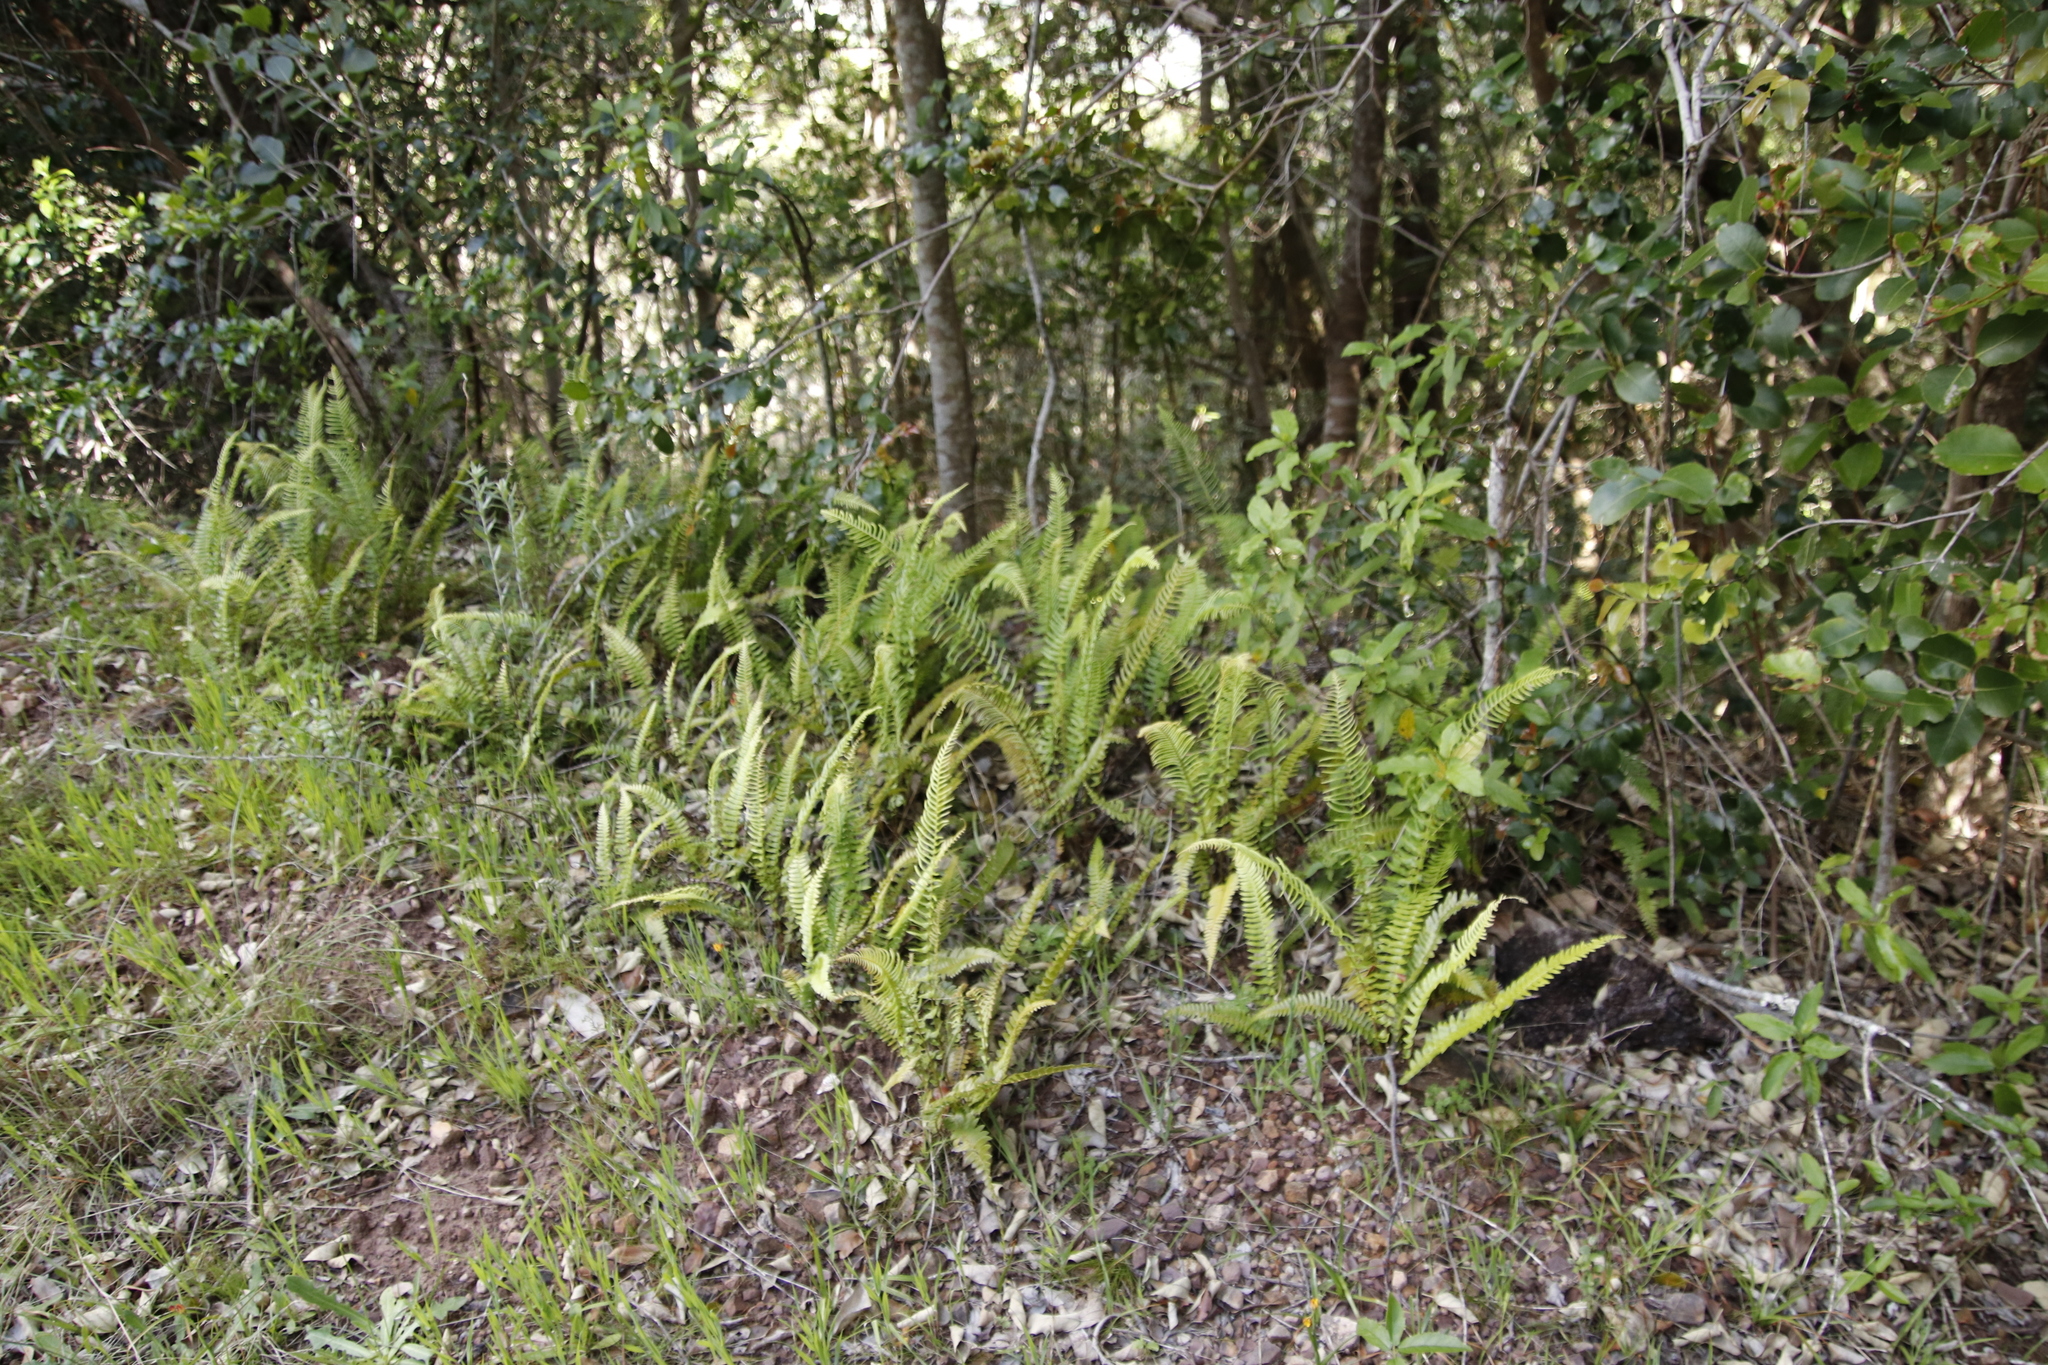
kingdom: Plantae
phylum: Tracheophyta
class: Polypodiopsida
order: Polypodiales
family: Blechnaceae
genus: Blechnum
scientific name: Blechnum australe
